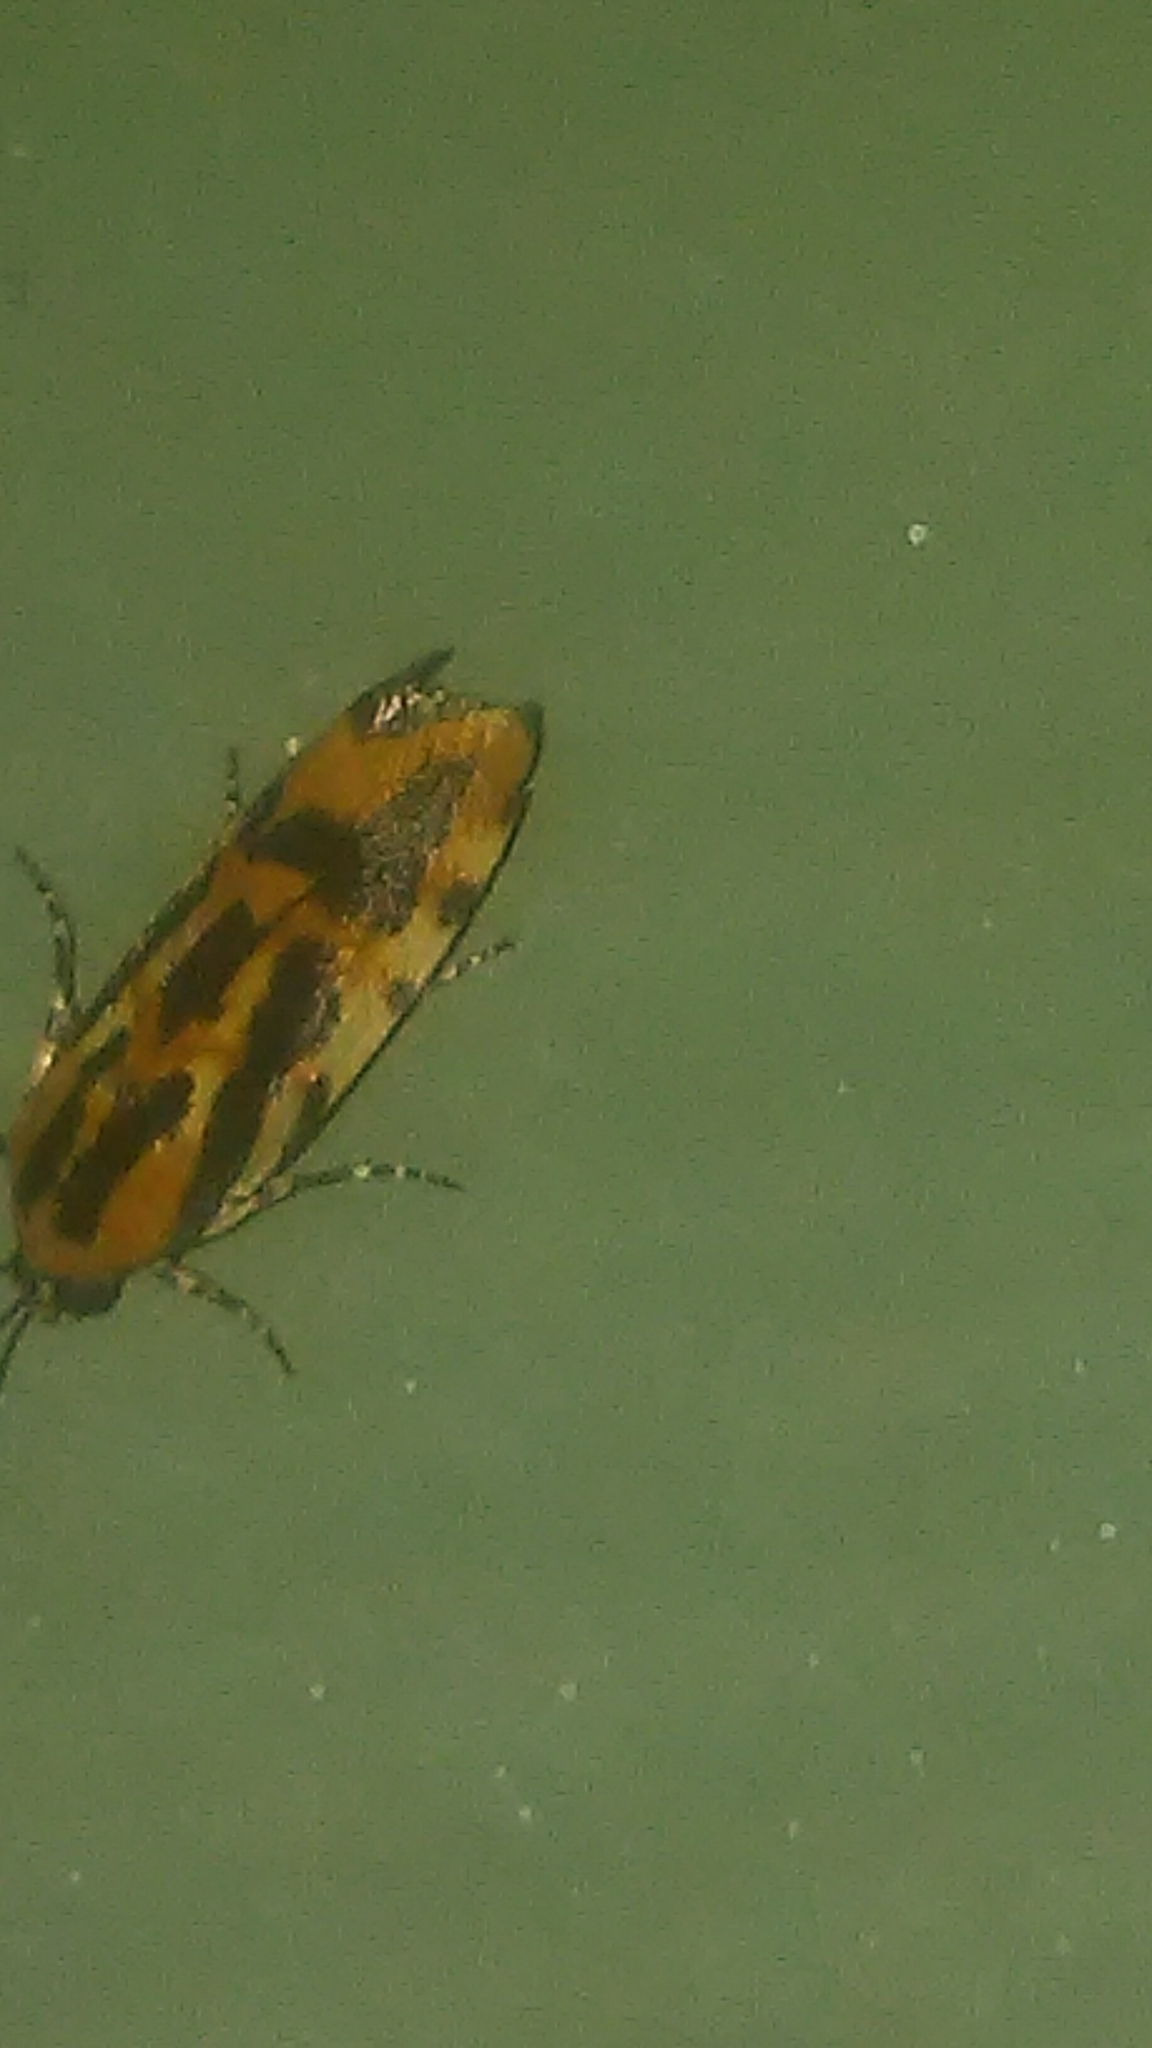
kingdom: Animalia
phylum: Arthropoda
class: Insecta
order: Lepidoptera
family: Noctuidae
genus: Acontia
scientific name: Acontia leo
